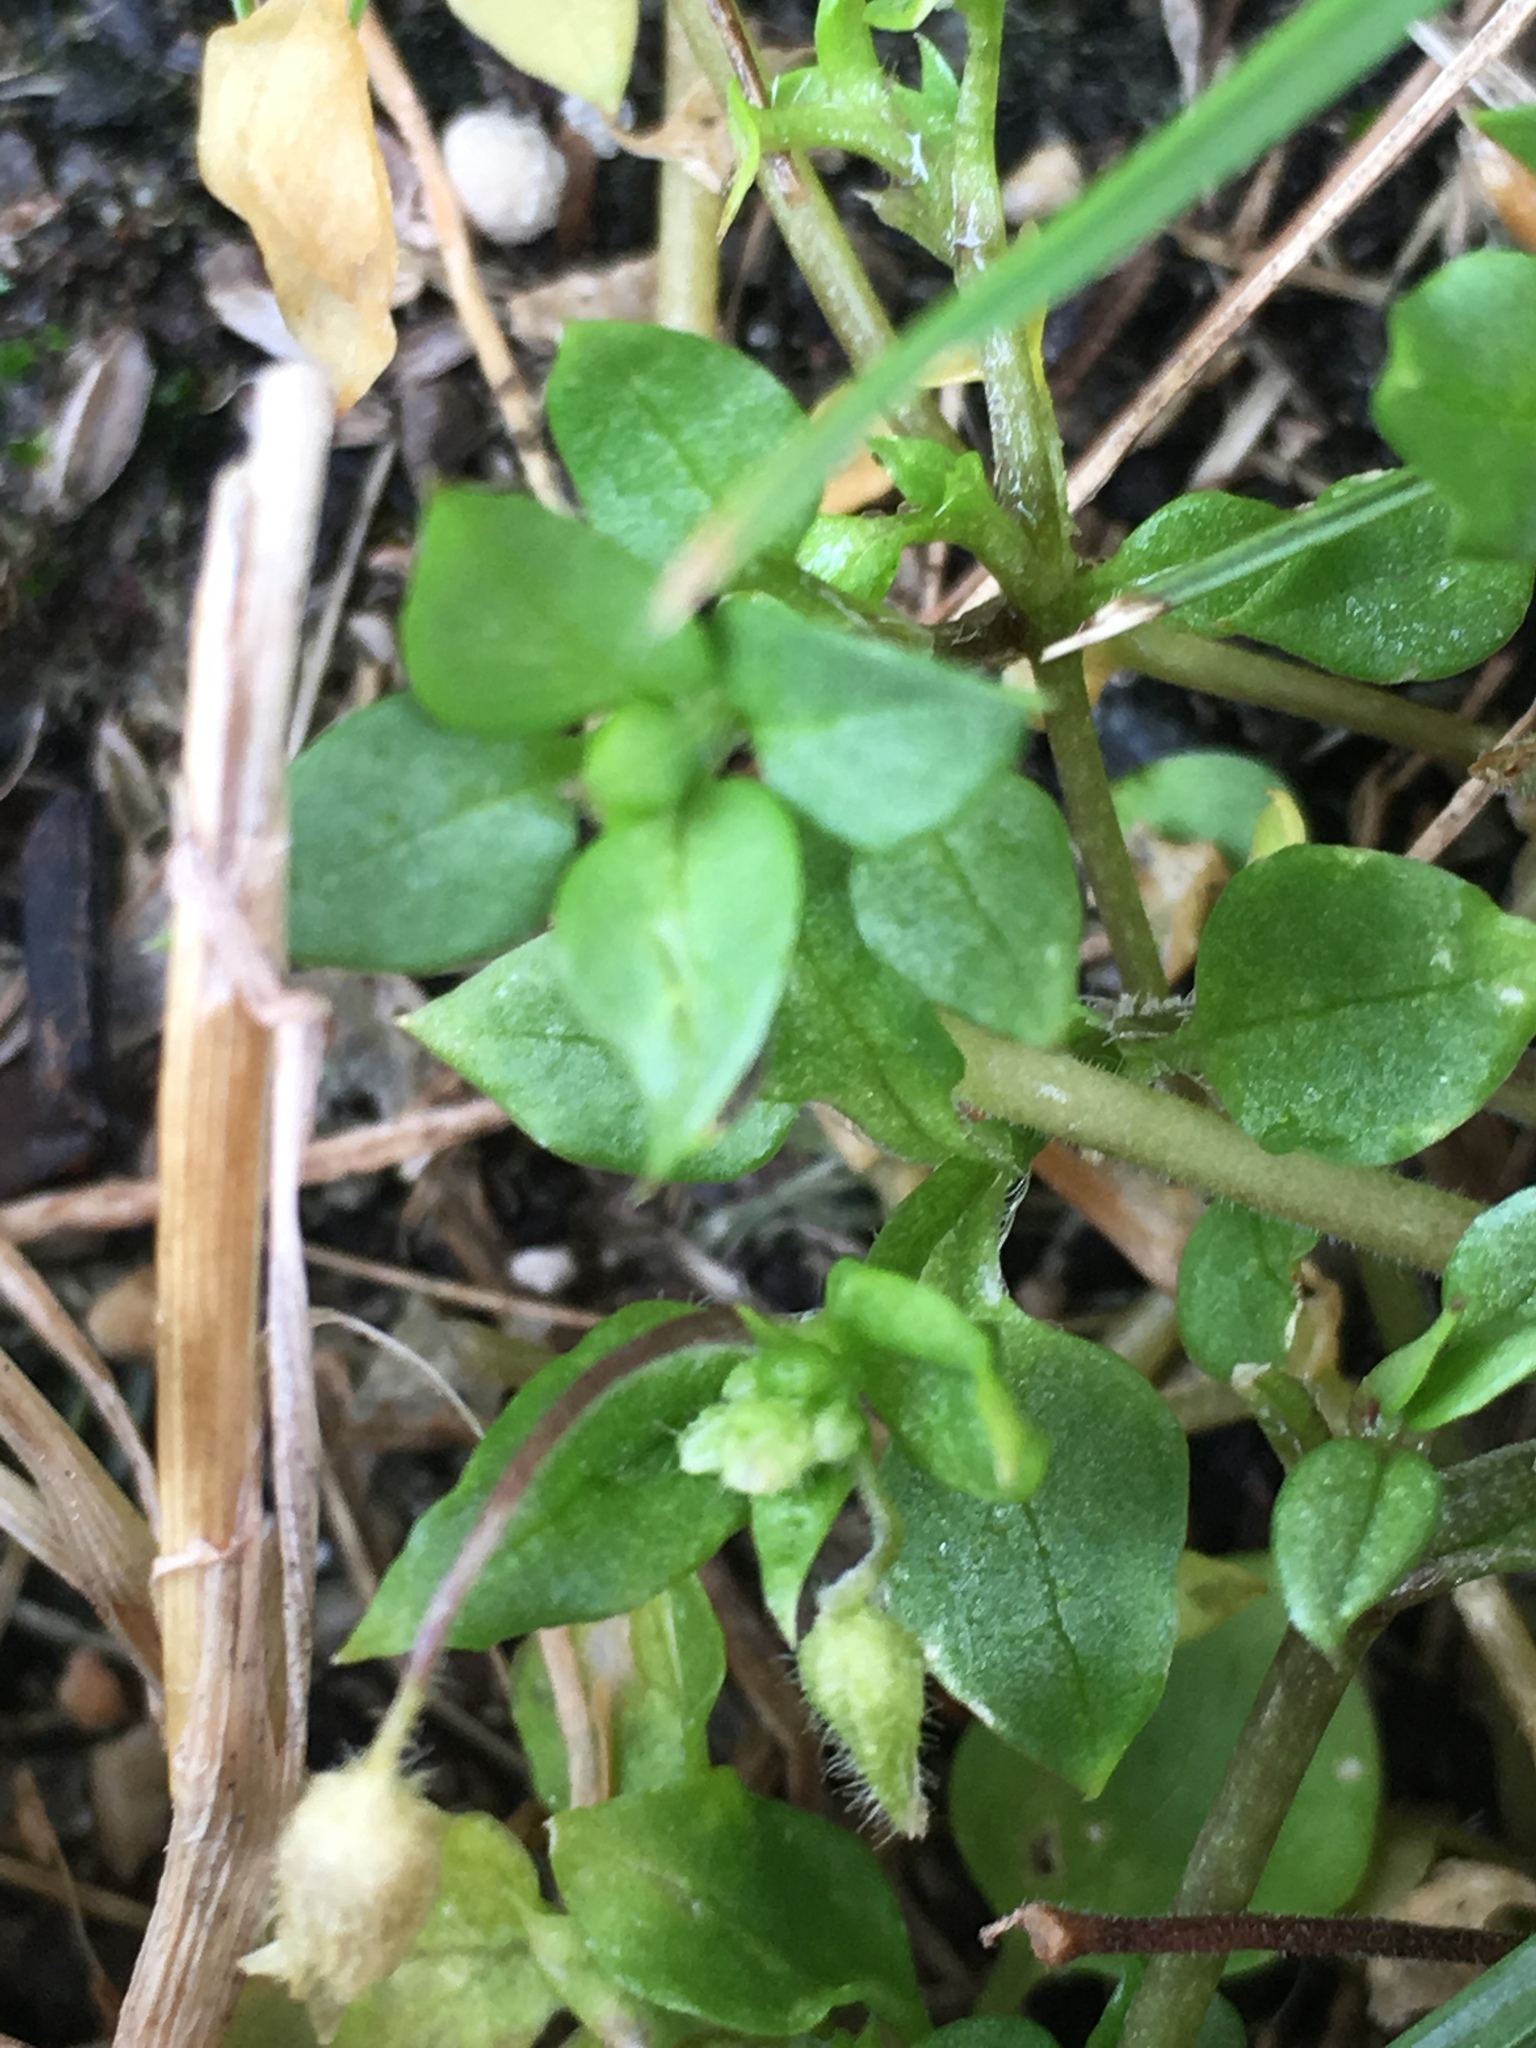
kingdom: Plantae
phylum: Tracheophyta
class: Magnoliopsida
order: Caryophyllales
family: Caryophyllaceae
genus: Stellaria
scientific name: Stellaria media
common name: Common chickweed
